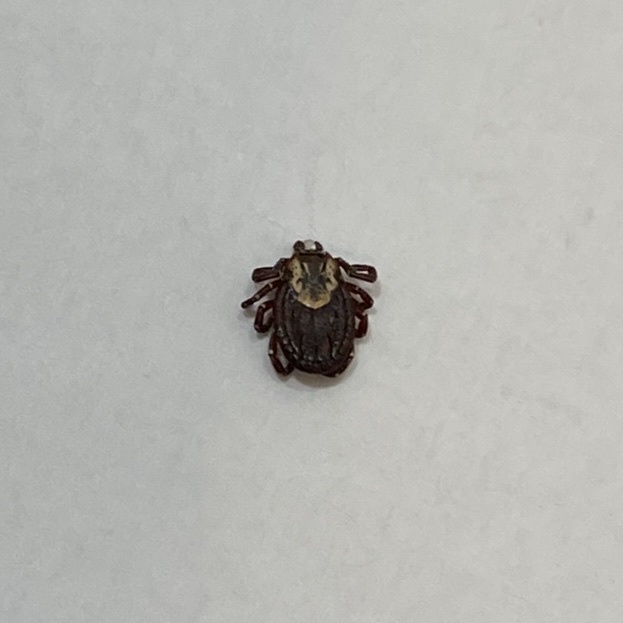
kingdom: Animalia
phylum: Arthropoda
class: Arachnida
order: Ixodida
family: Ixodidae
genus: Dermacentor
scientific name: Dermacentor variabilis
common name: American dog tick
